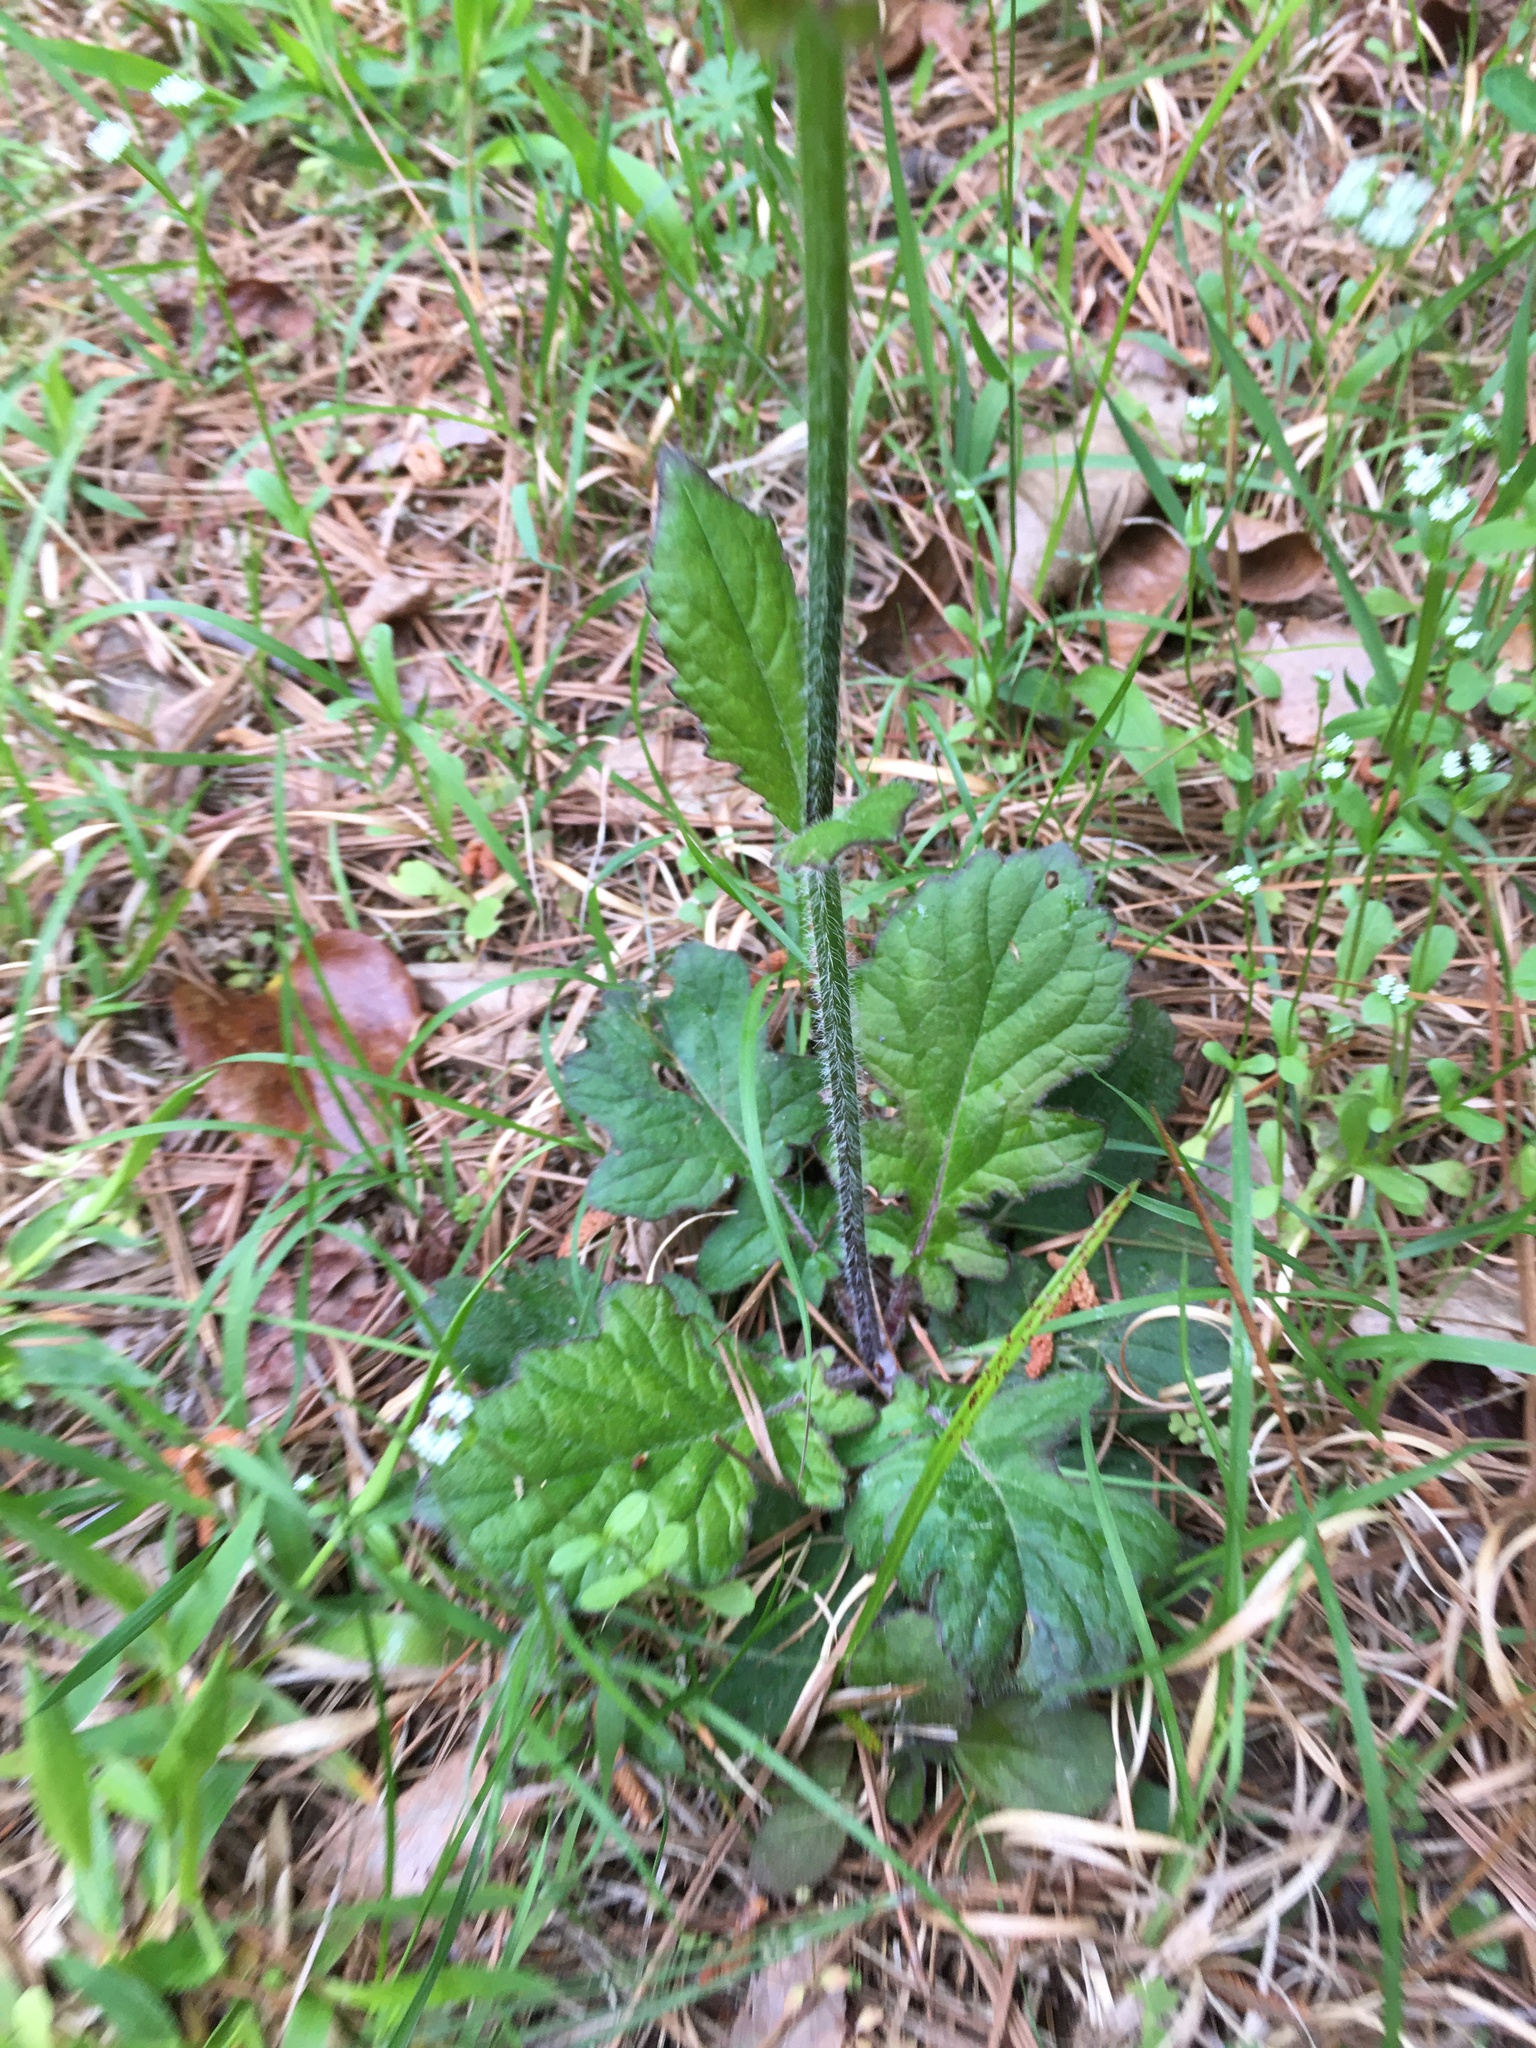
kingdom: Plantae
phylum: Tracheophyta
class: Magnoliopsida
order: Lamiales
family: Lamiaceae
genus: Salvia
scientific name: Salvia lyrata
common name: Cancerweed
